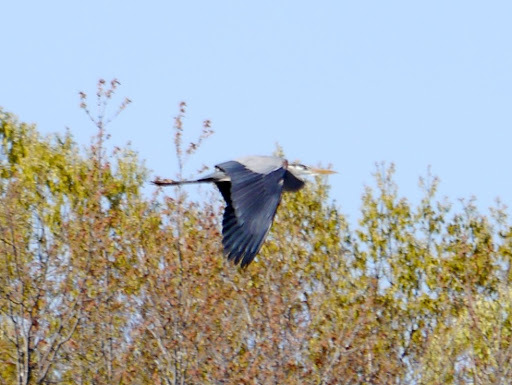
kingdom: Animalia
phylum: Chordata
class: Aves
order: Pelecaniformes
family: Ardeidae
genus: Ardea
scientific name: Ardea herodias
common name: Great blue heron
